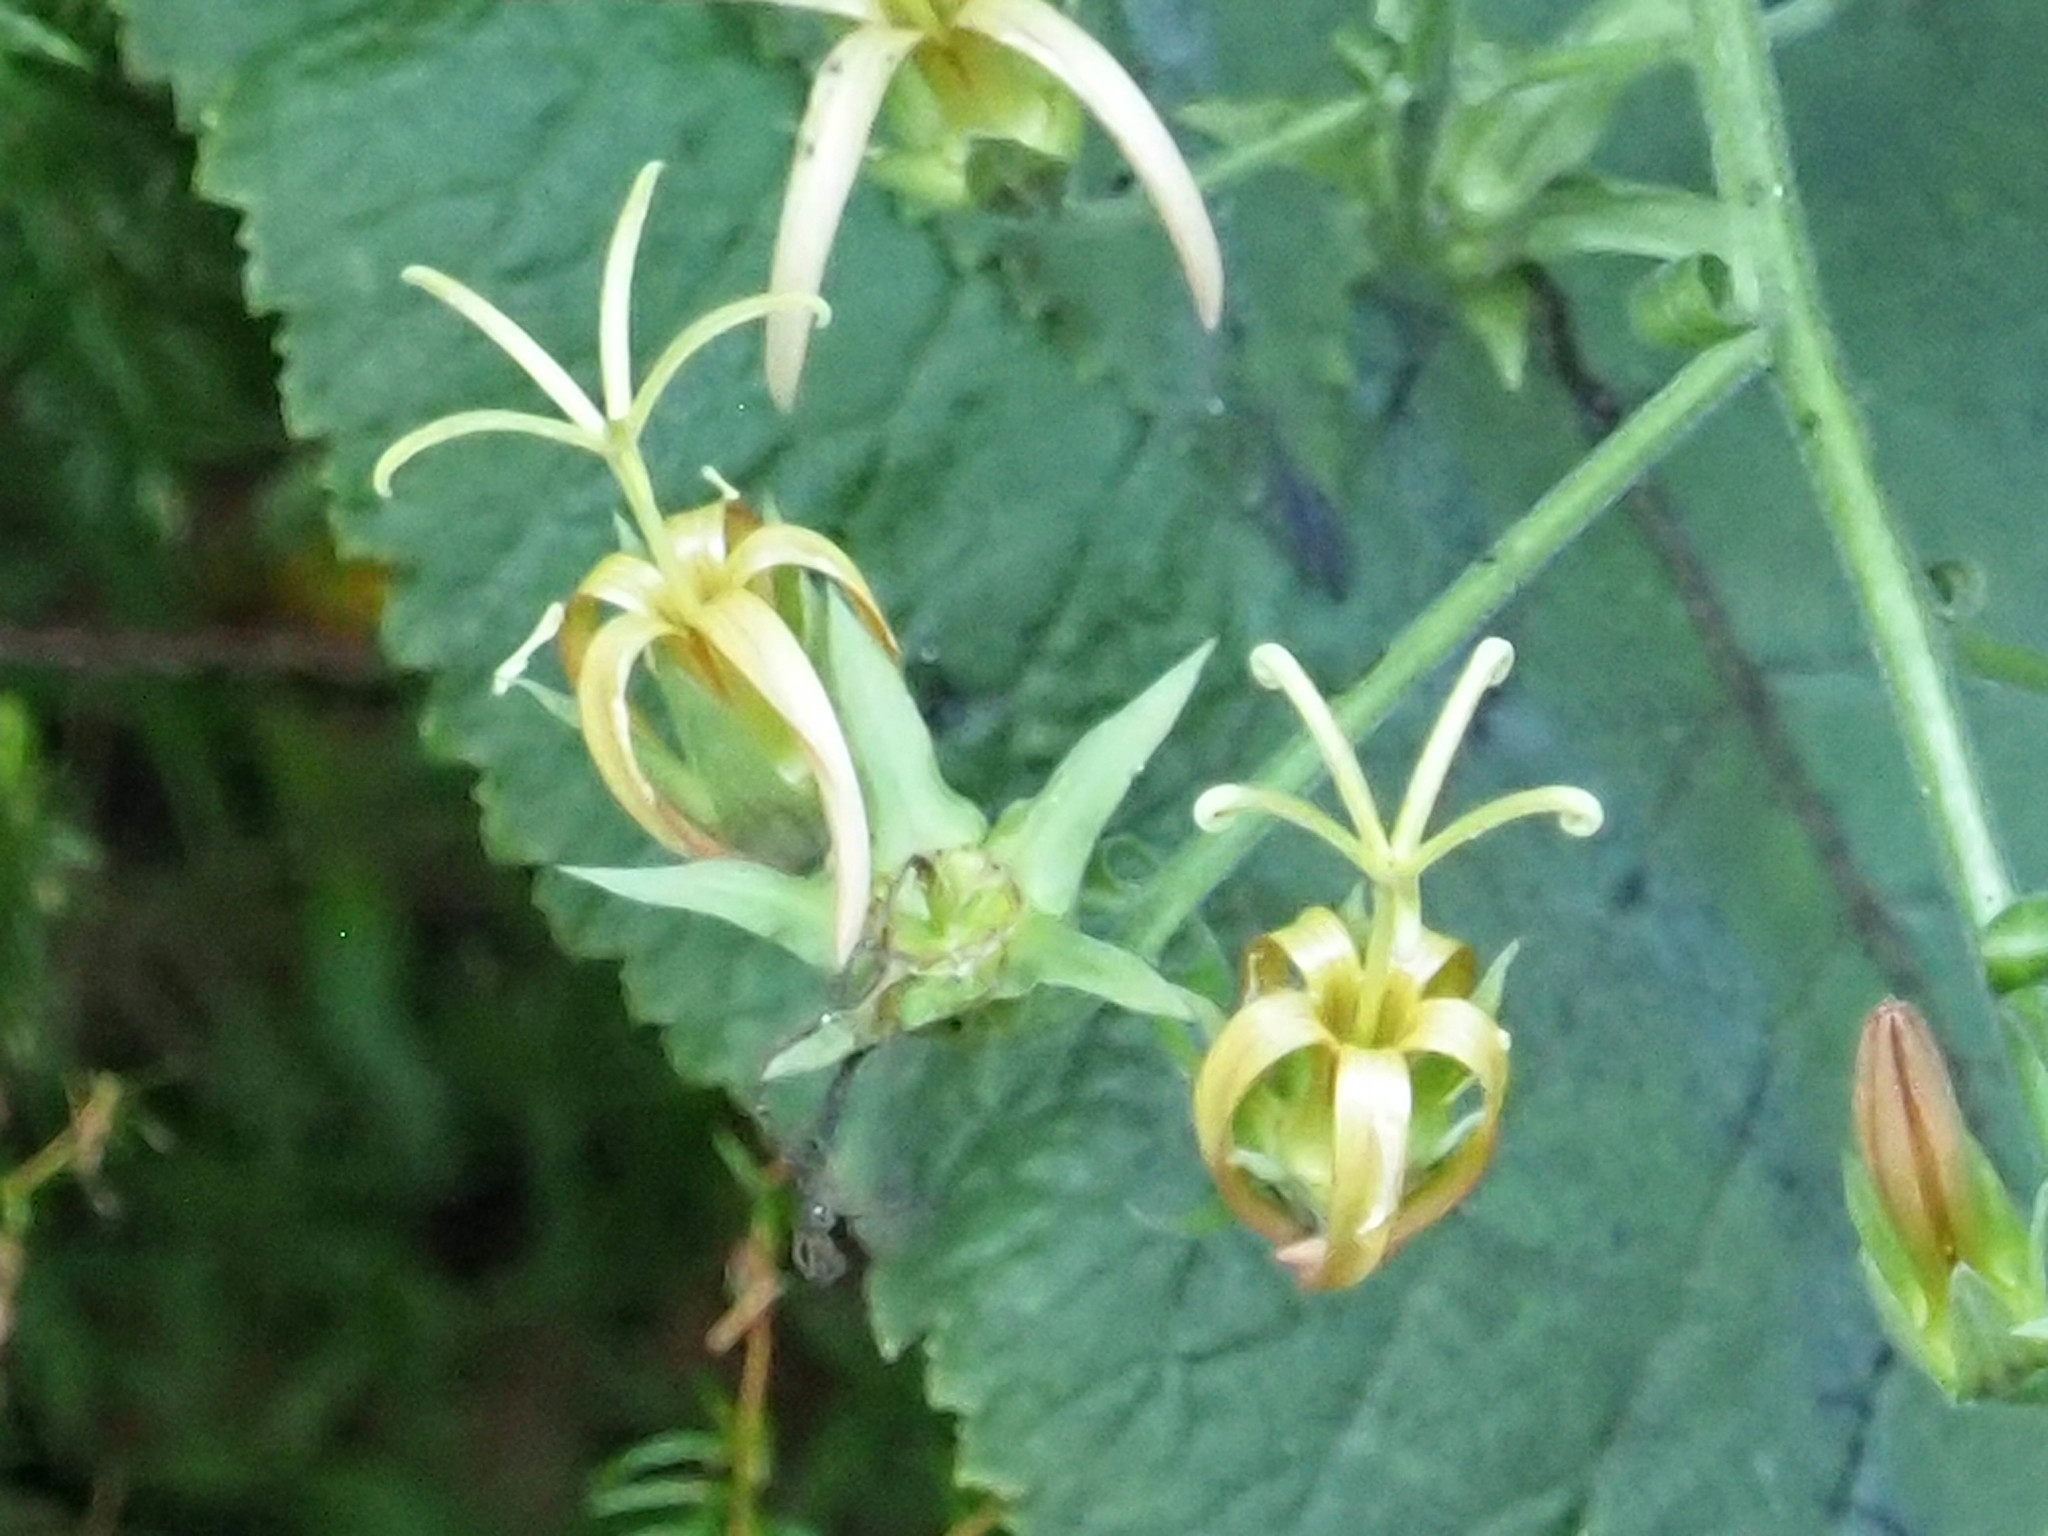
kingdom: Plantae
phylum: Tracheophyta
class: Magnoliopsida
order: Asterales
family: Campanulaceae
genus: Musschia
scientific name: Musschia wollastonii
